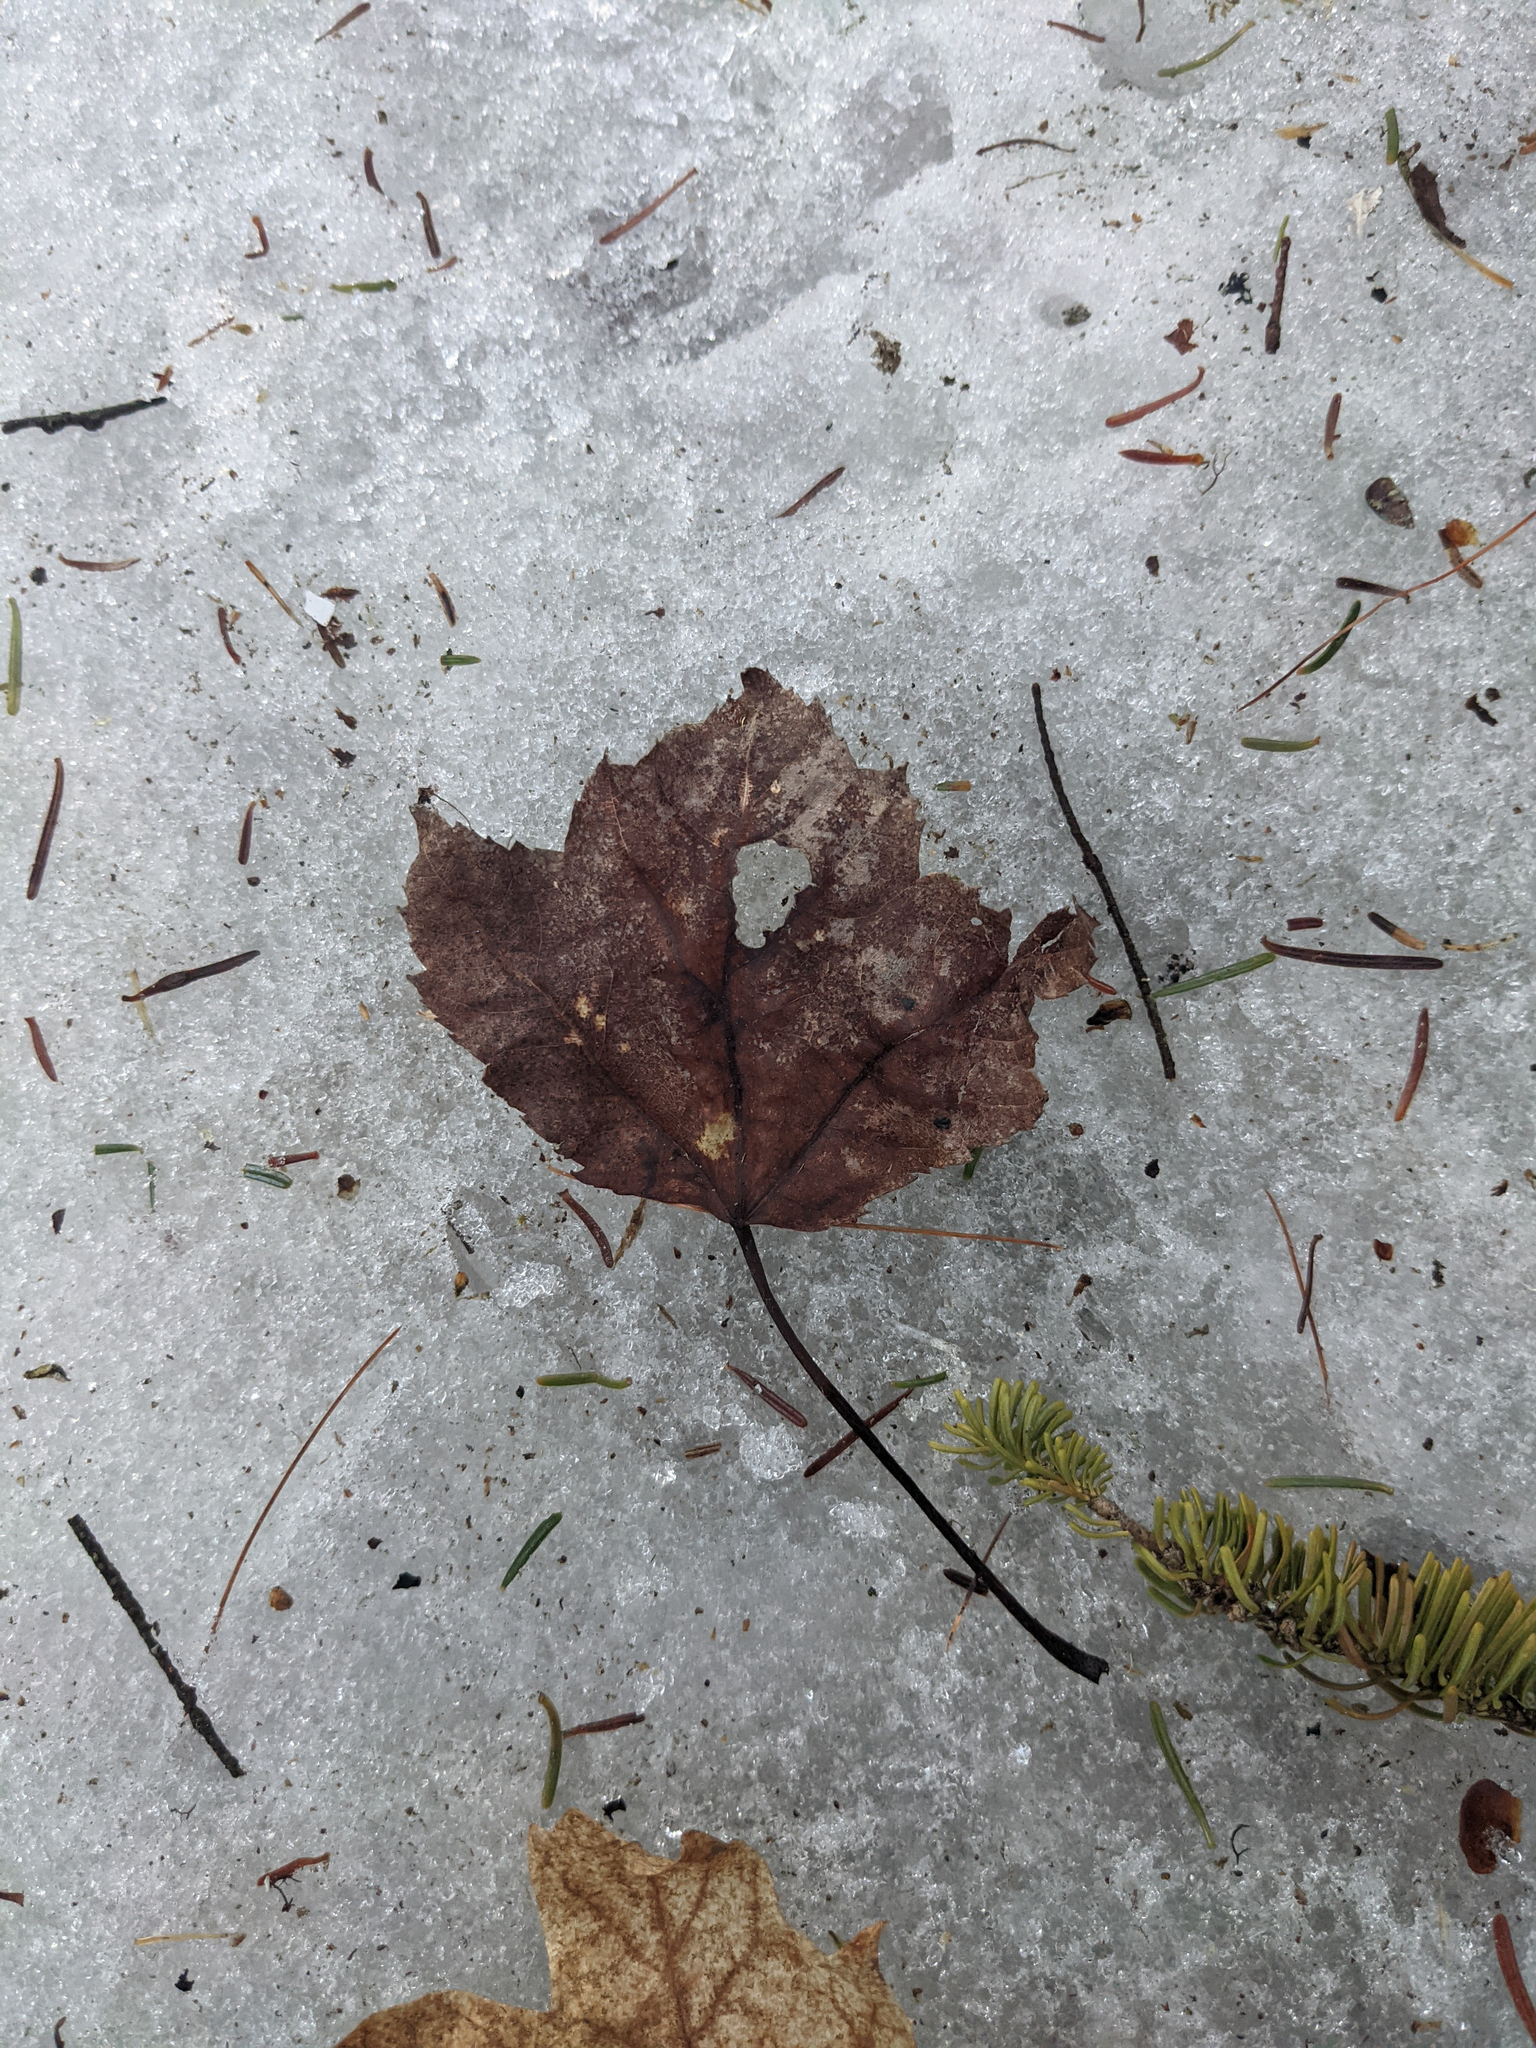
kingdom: Plantae
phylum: Tracheophyta
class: Magnoliopsida
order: Sapindales
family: Sapindaceae
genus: Acer
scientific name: Acer rubrum
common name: Red maple
